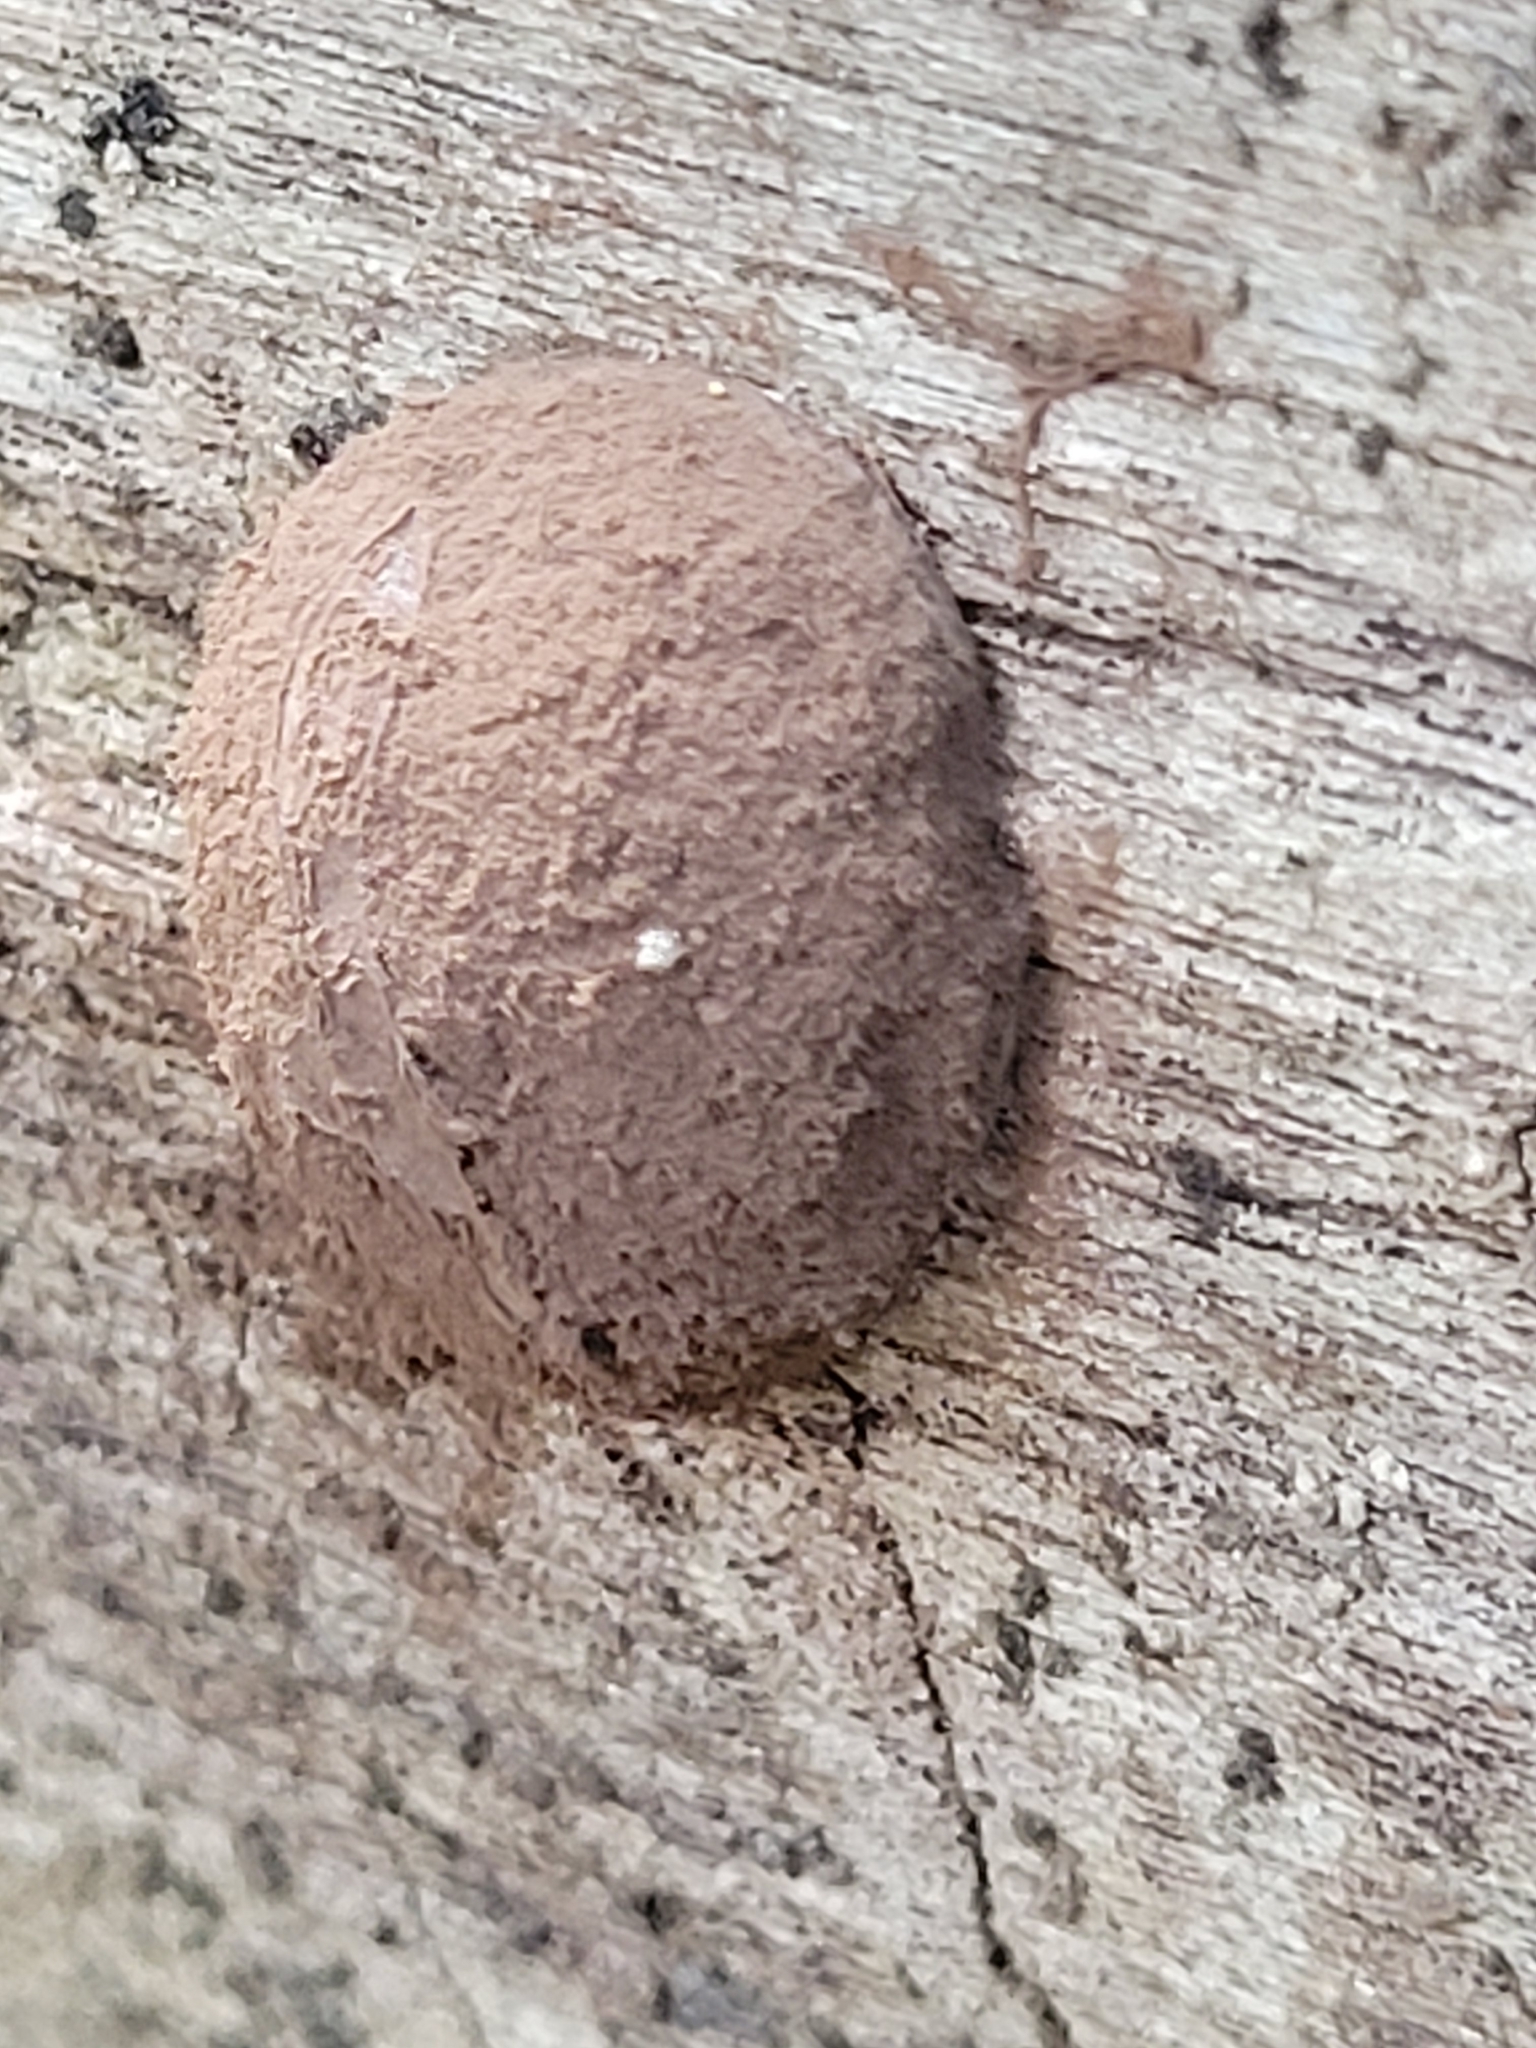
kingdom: Protozoa
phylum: Mycetozoa
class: Myxomycetes
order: Cribrariales
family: Tubiferaceae
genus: Reticularia
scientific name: Reticularia lycoperdon
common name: False puffball
